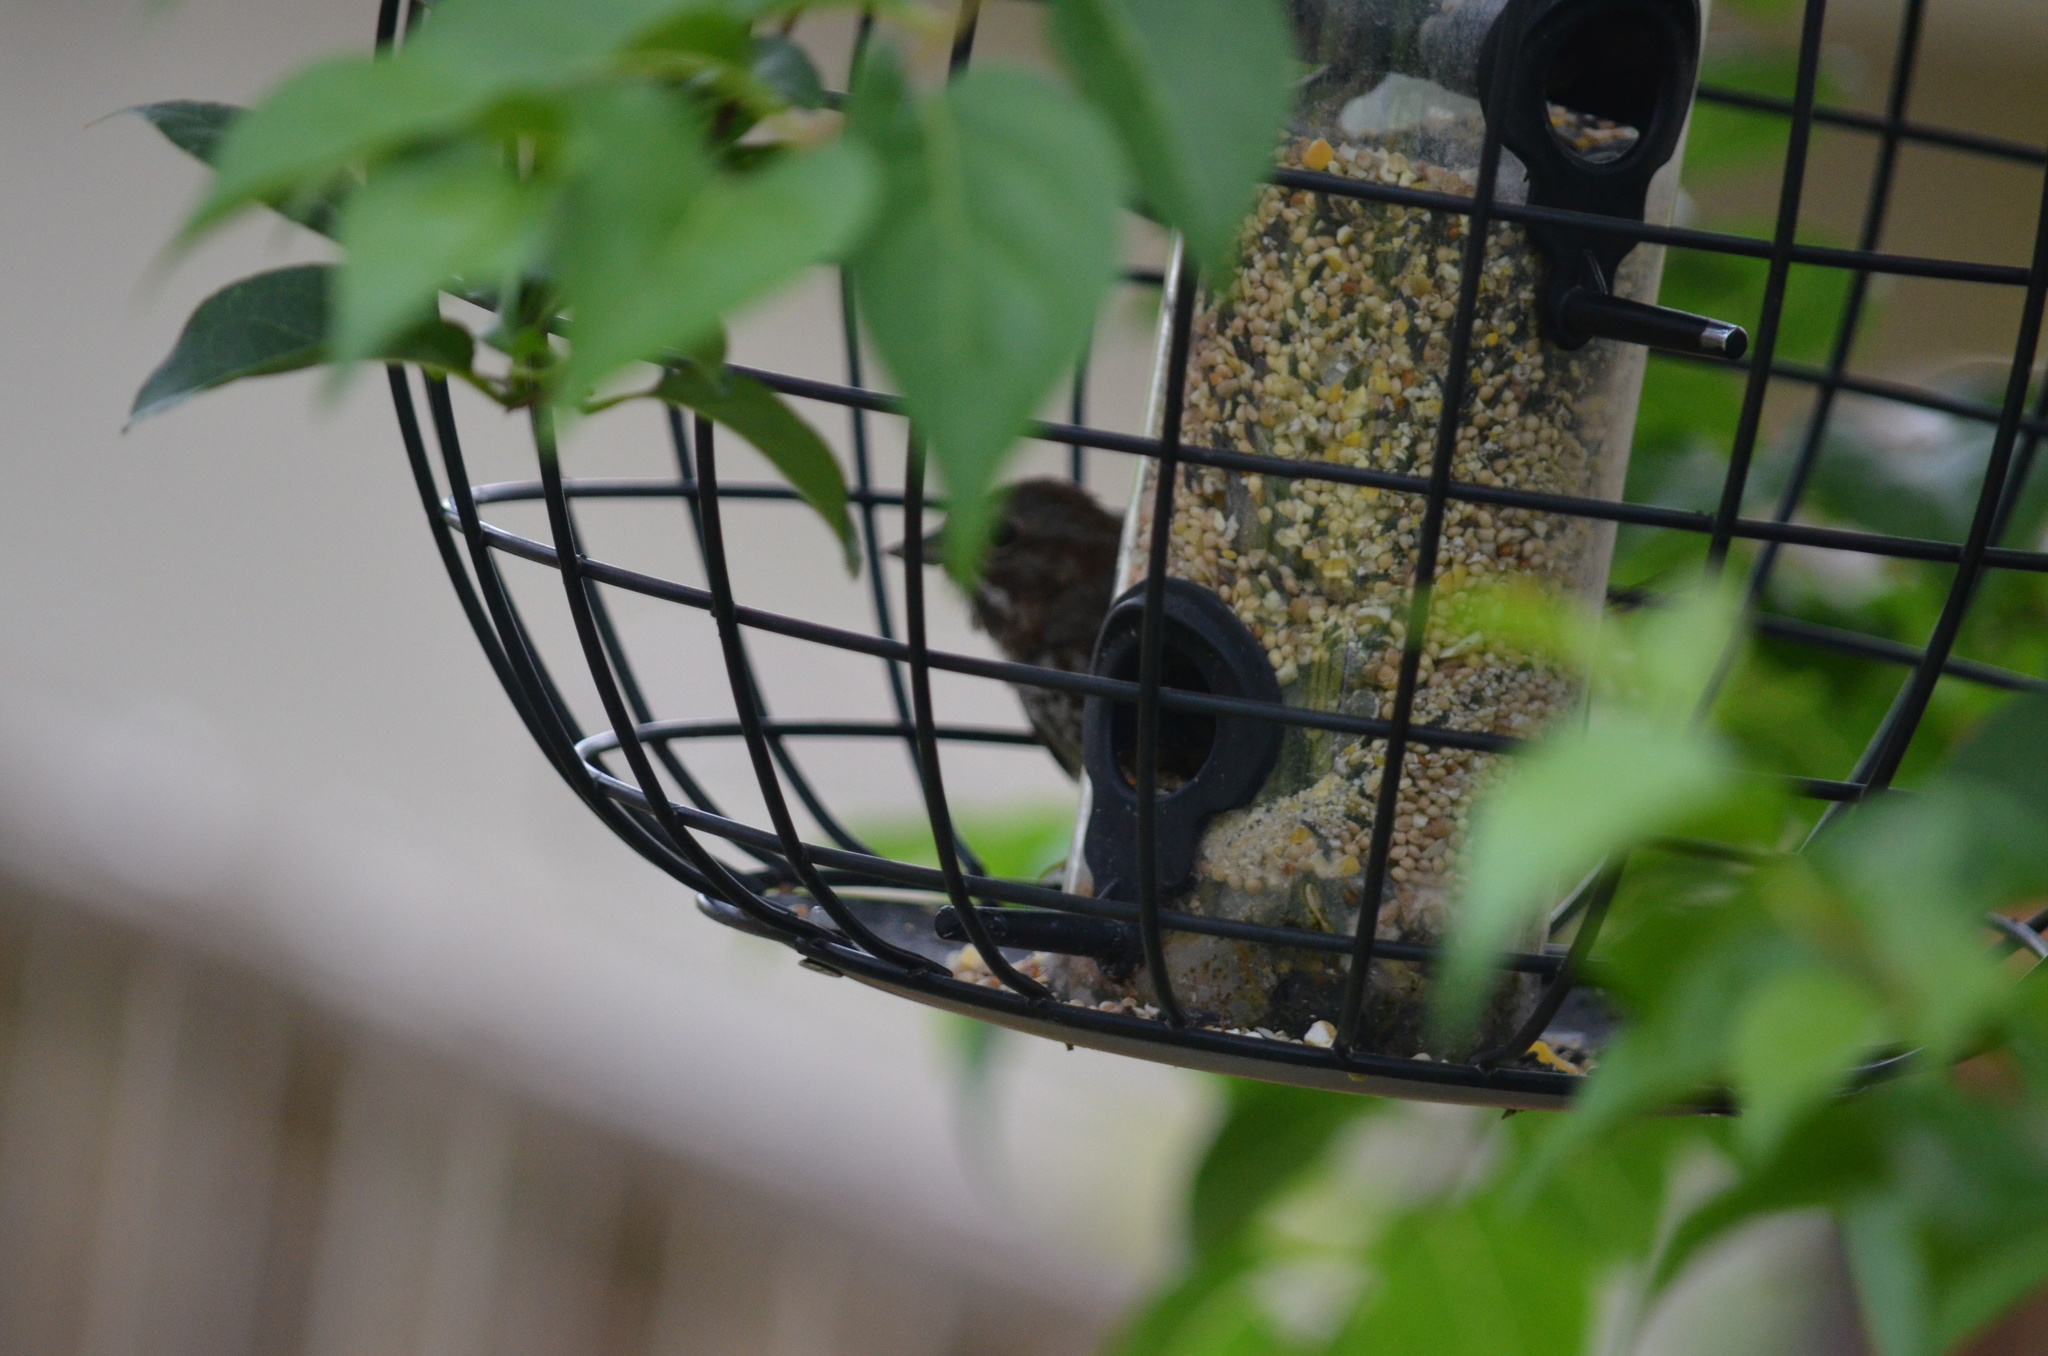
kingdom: Animalia
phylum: Chordata
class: Aves
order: Passeriformes
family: Passerellidae
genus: Melospiza
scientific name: Melospiza melodia
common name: Song sparrow
